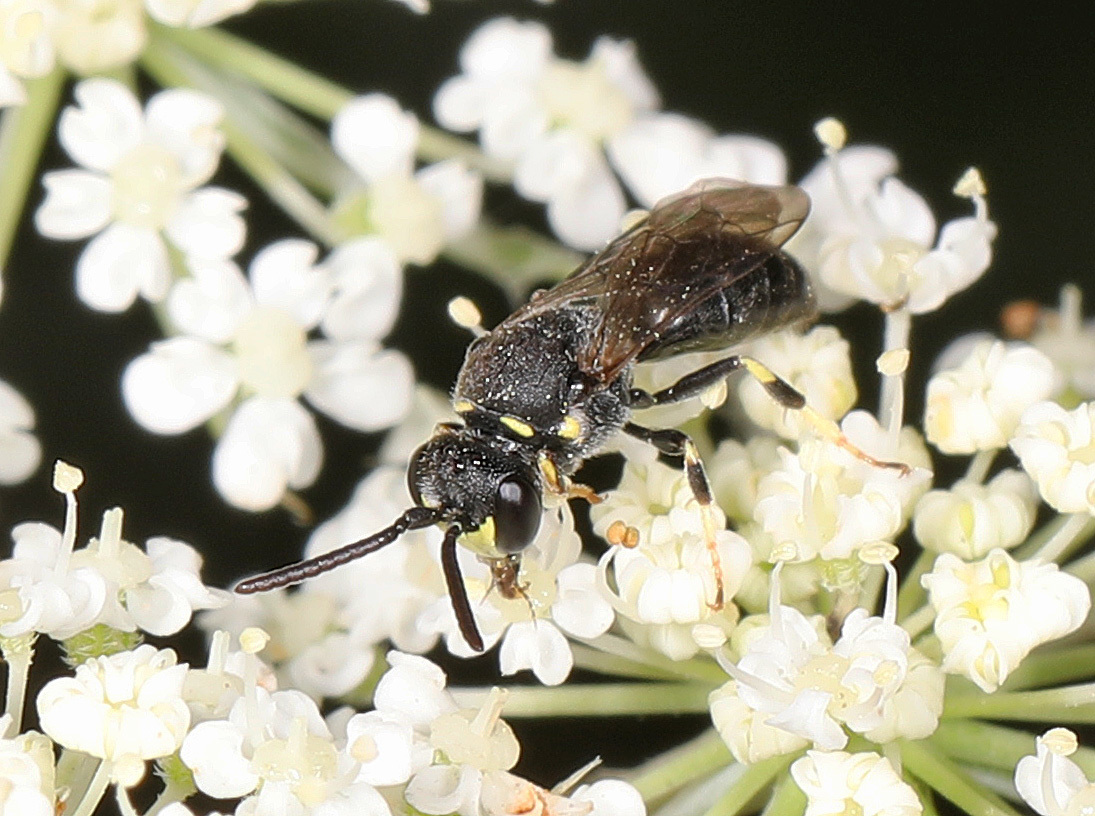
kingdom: Animalia
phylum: Arthropoda
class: Insecta
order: Hymenoptera
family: Colletidae
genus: Hylaeus
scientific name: Hylaeus modestus
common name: Yellow-faced bee
